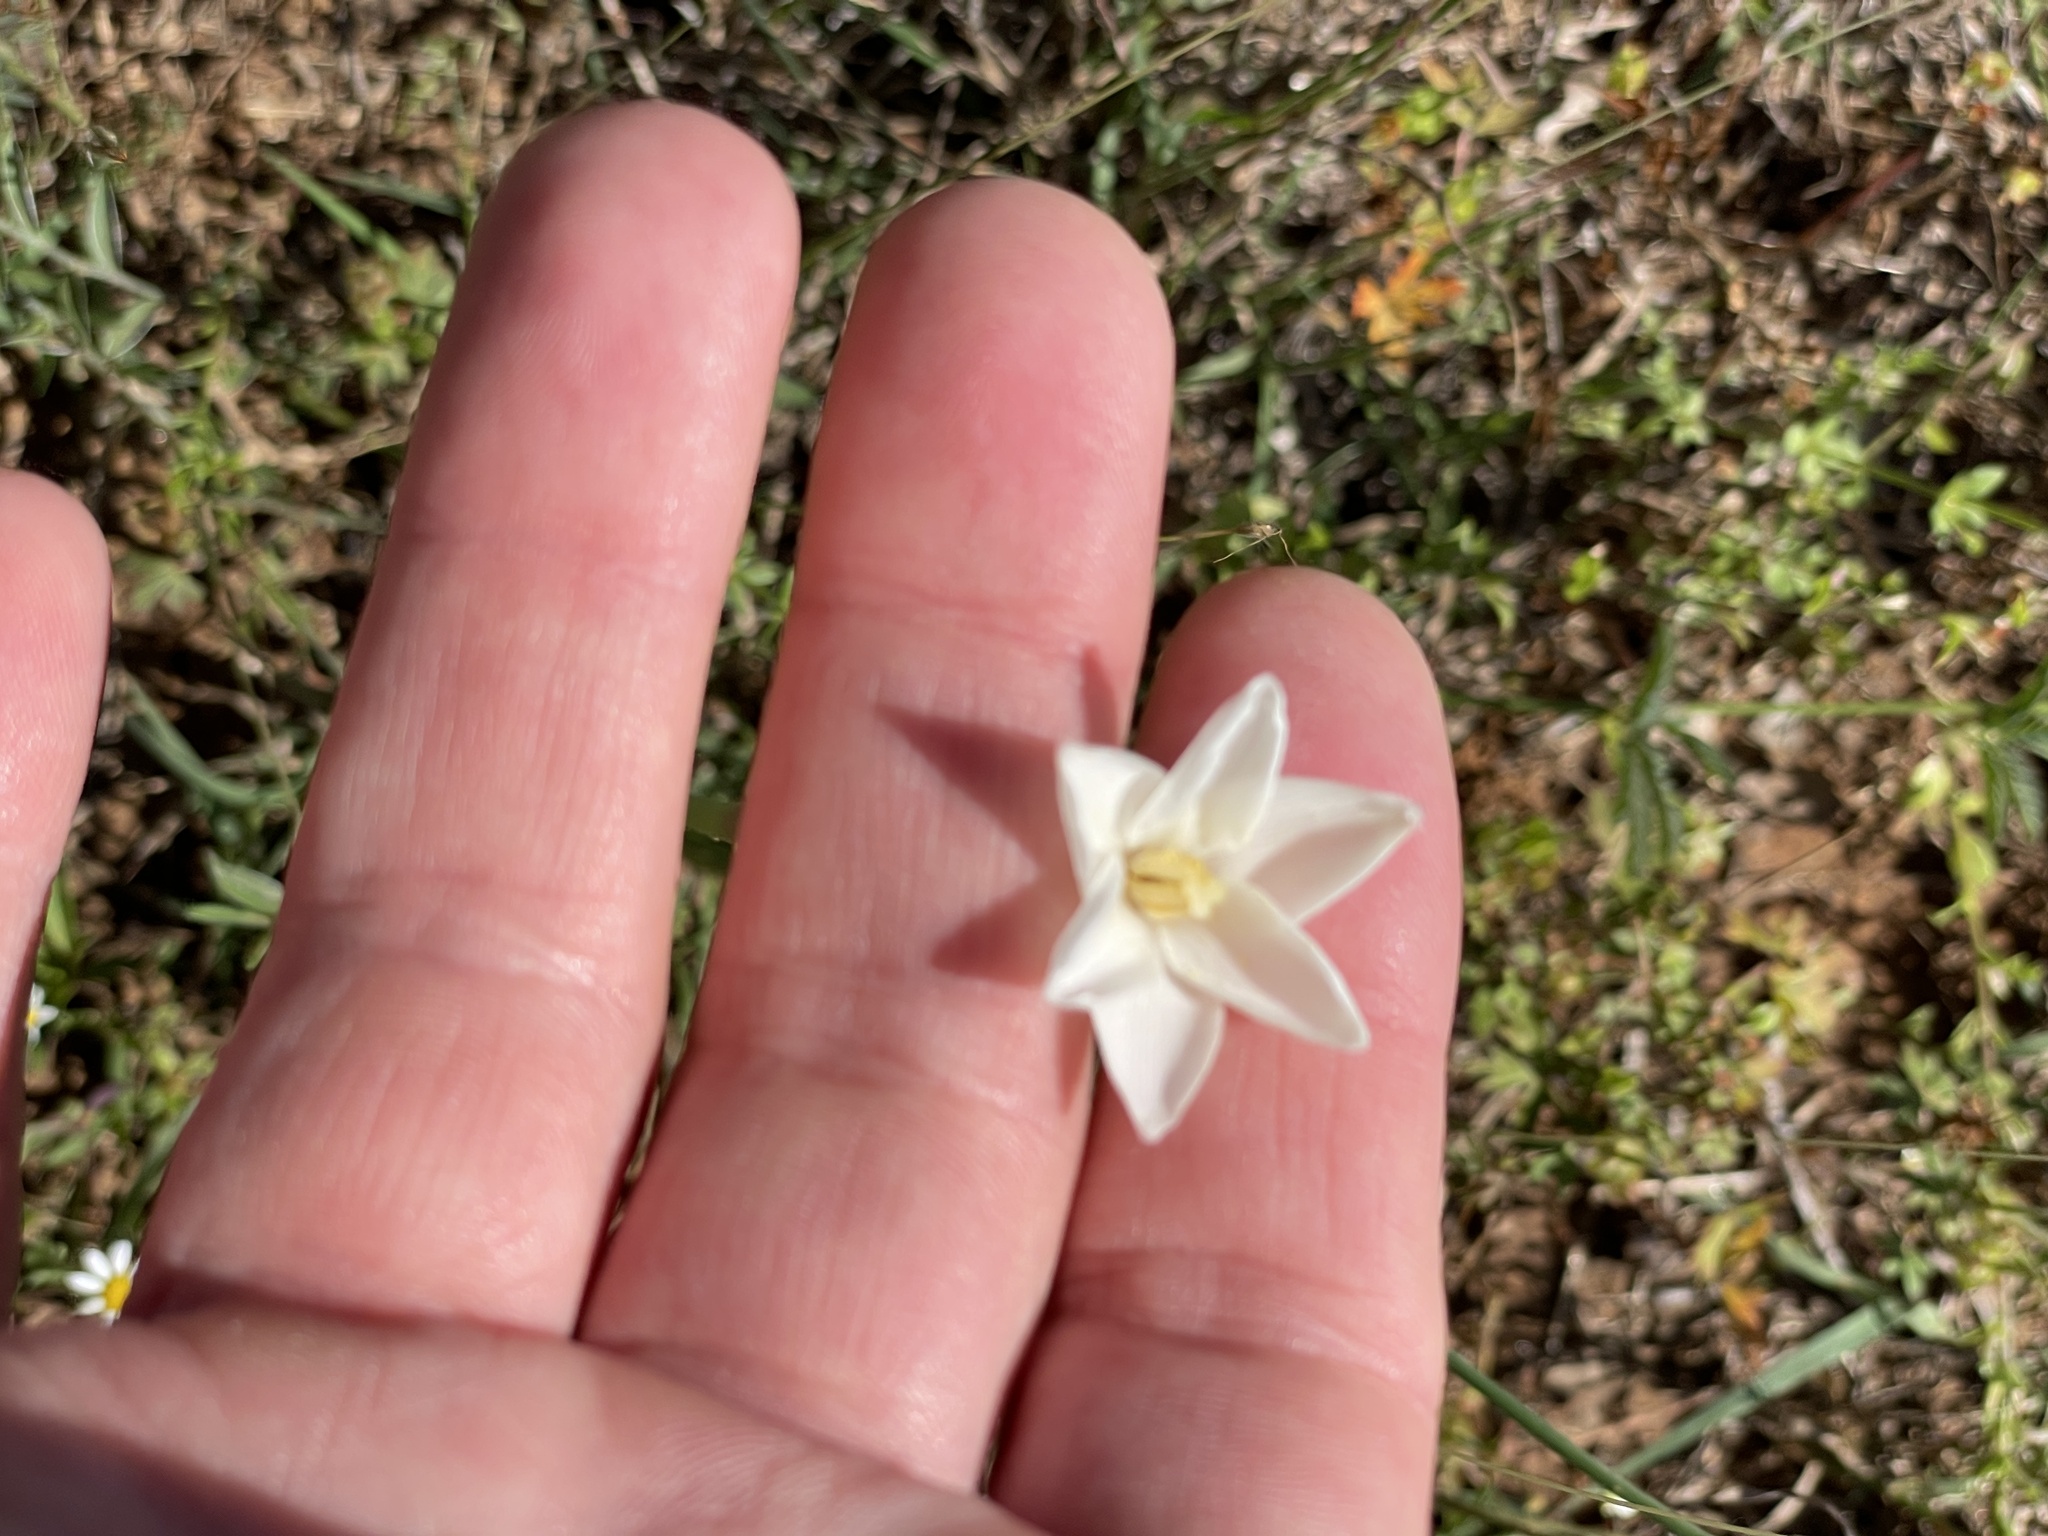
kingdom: Plantae
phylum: Tracheophyta
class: Liliopsida
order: Asparagales
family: Amaryllidaceae
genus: Zephyranthes
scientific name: Zephyranthes chlorosolen
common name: Evening rain-lily
